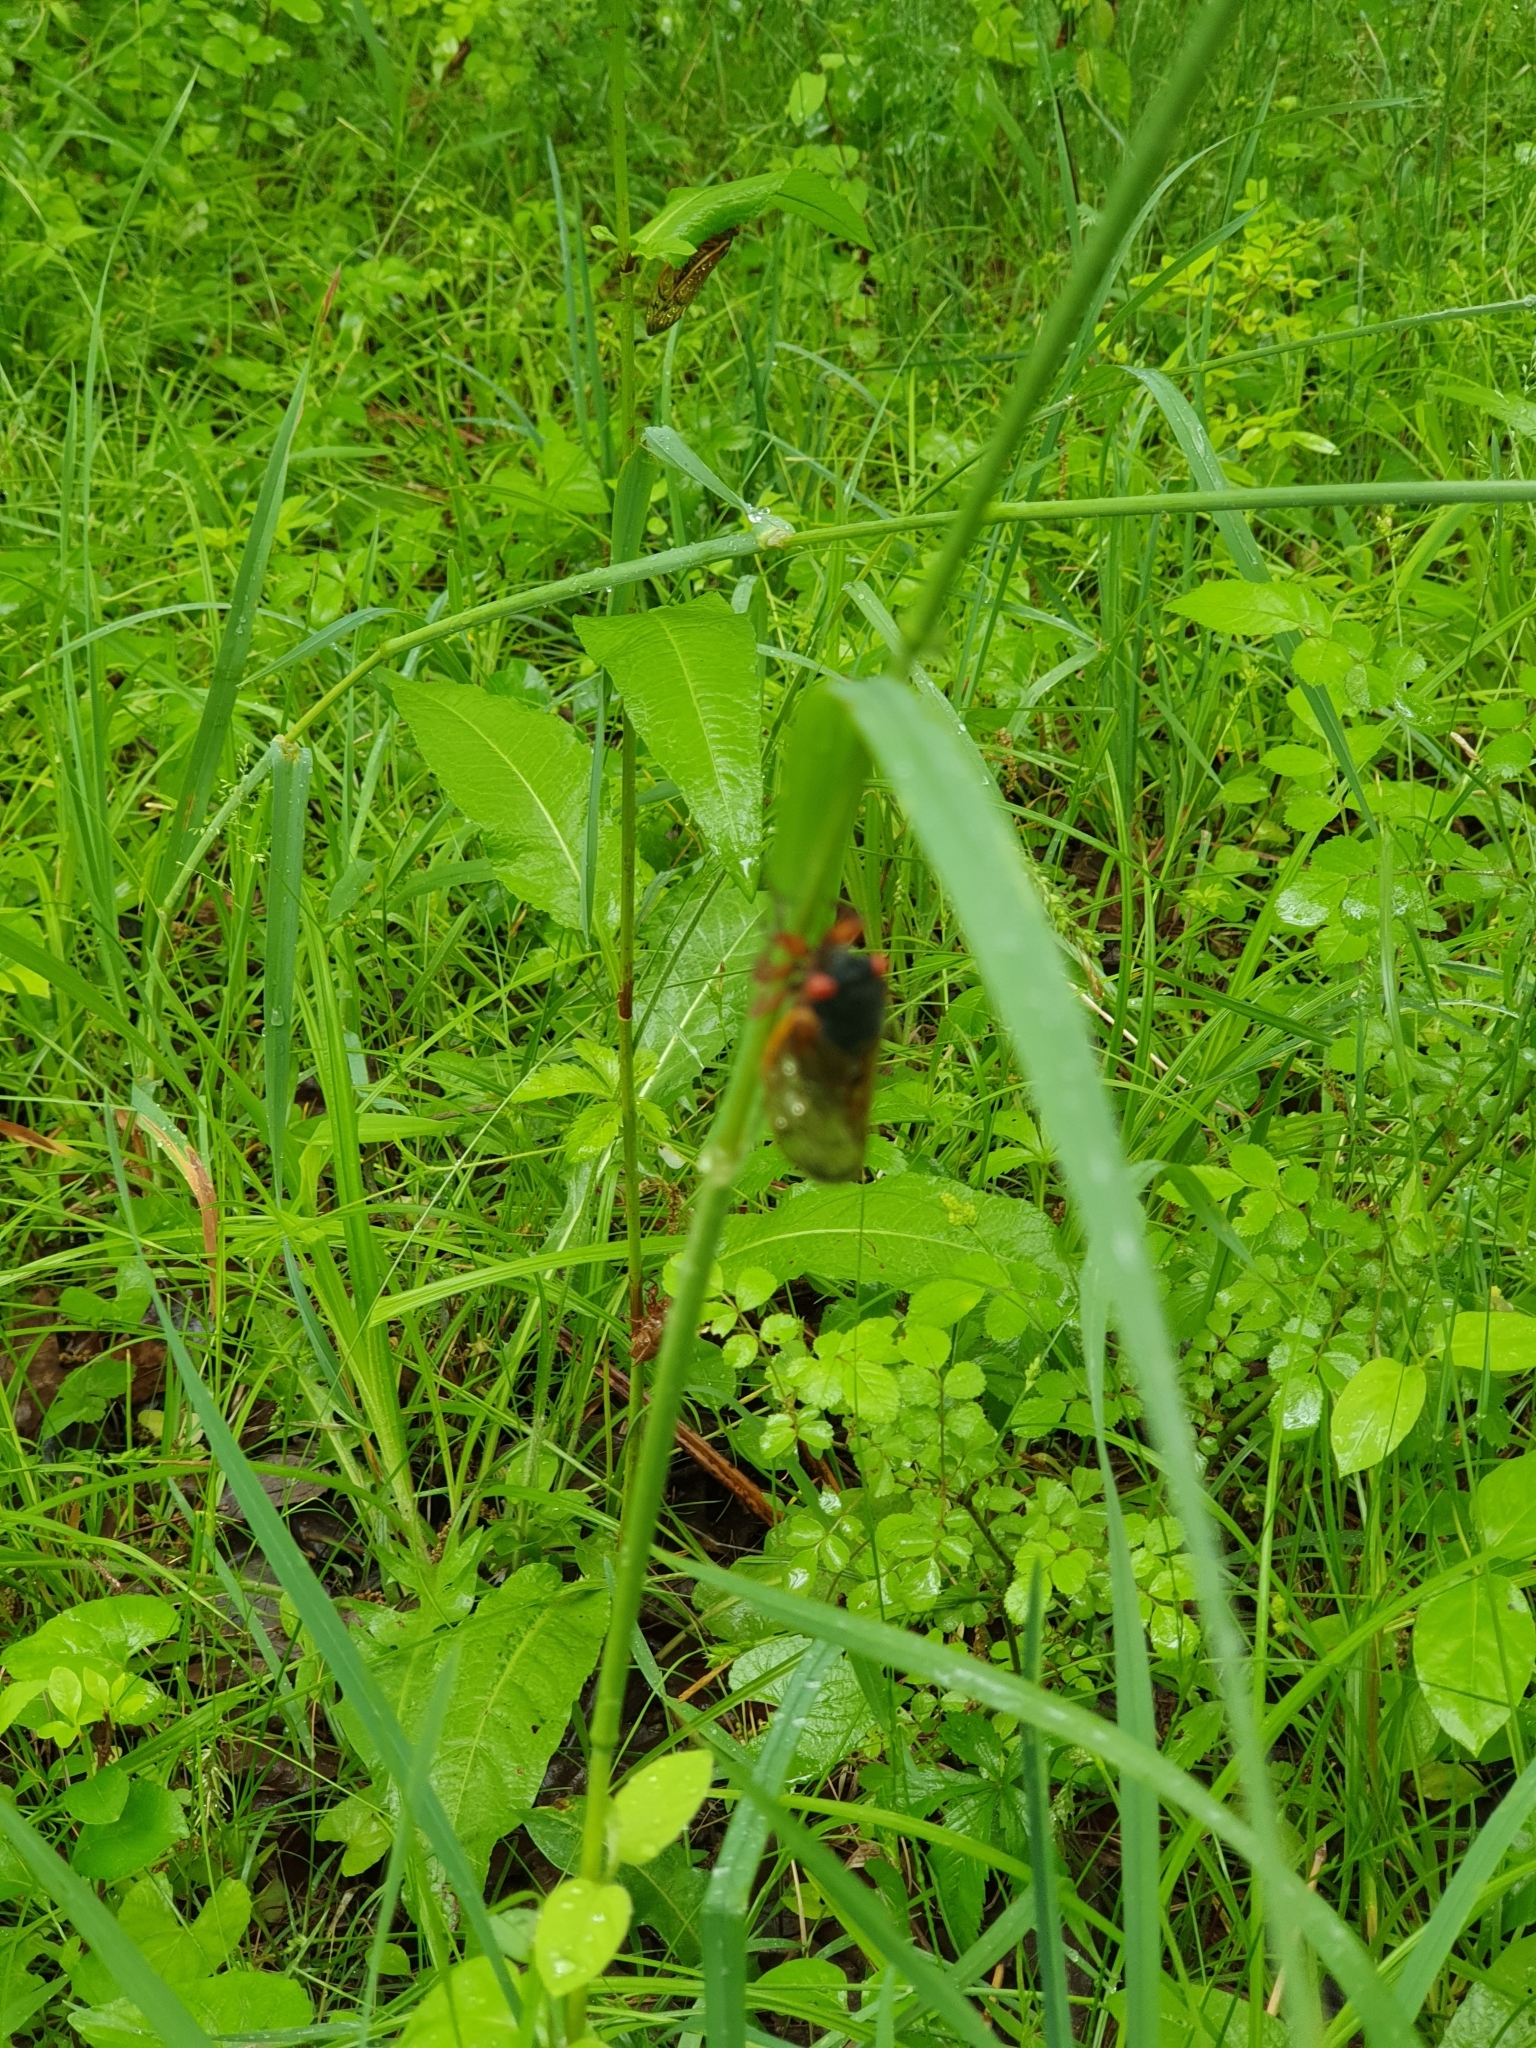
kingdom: Animalia
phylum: Arthropoda
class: Insecta
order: Hemiptera
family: Cicadidae
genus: Magicicada
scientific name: Magicicada
